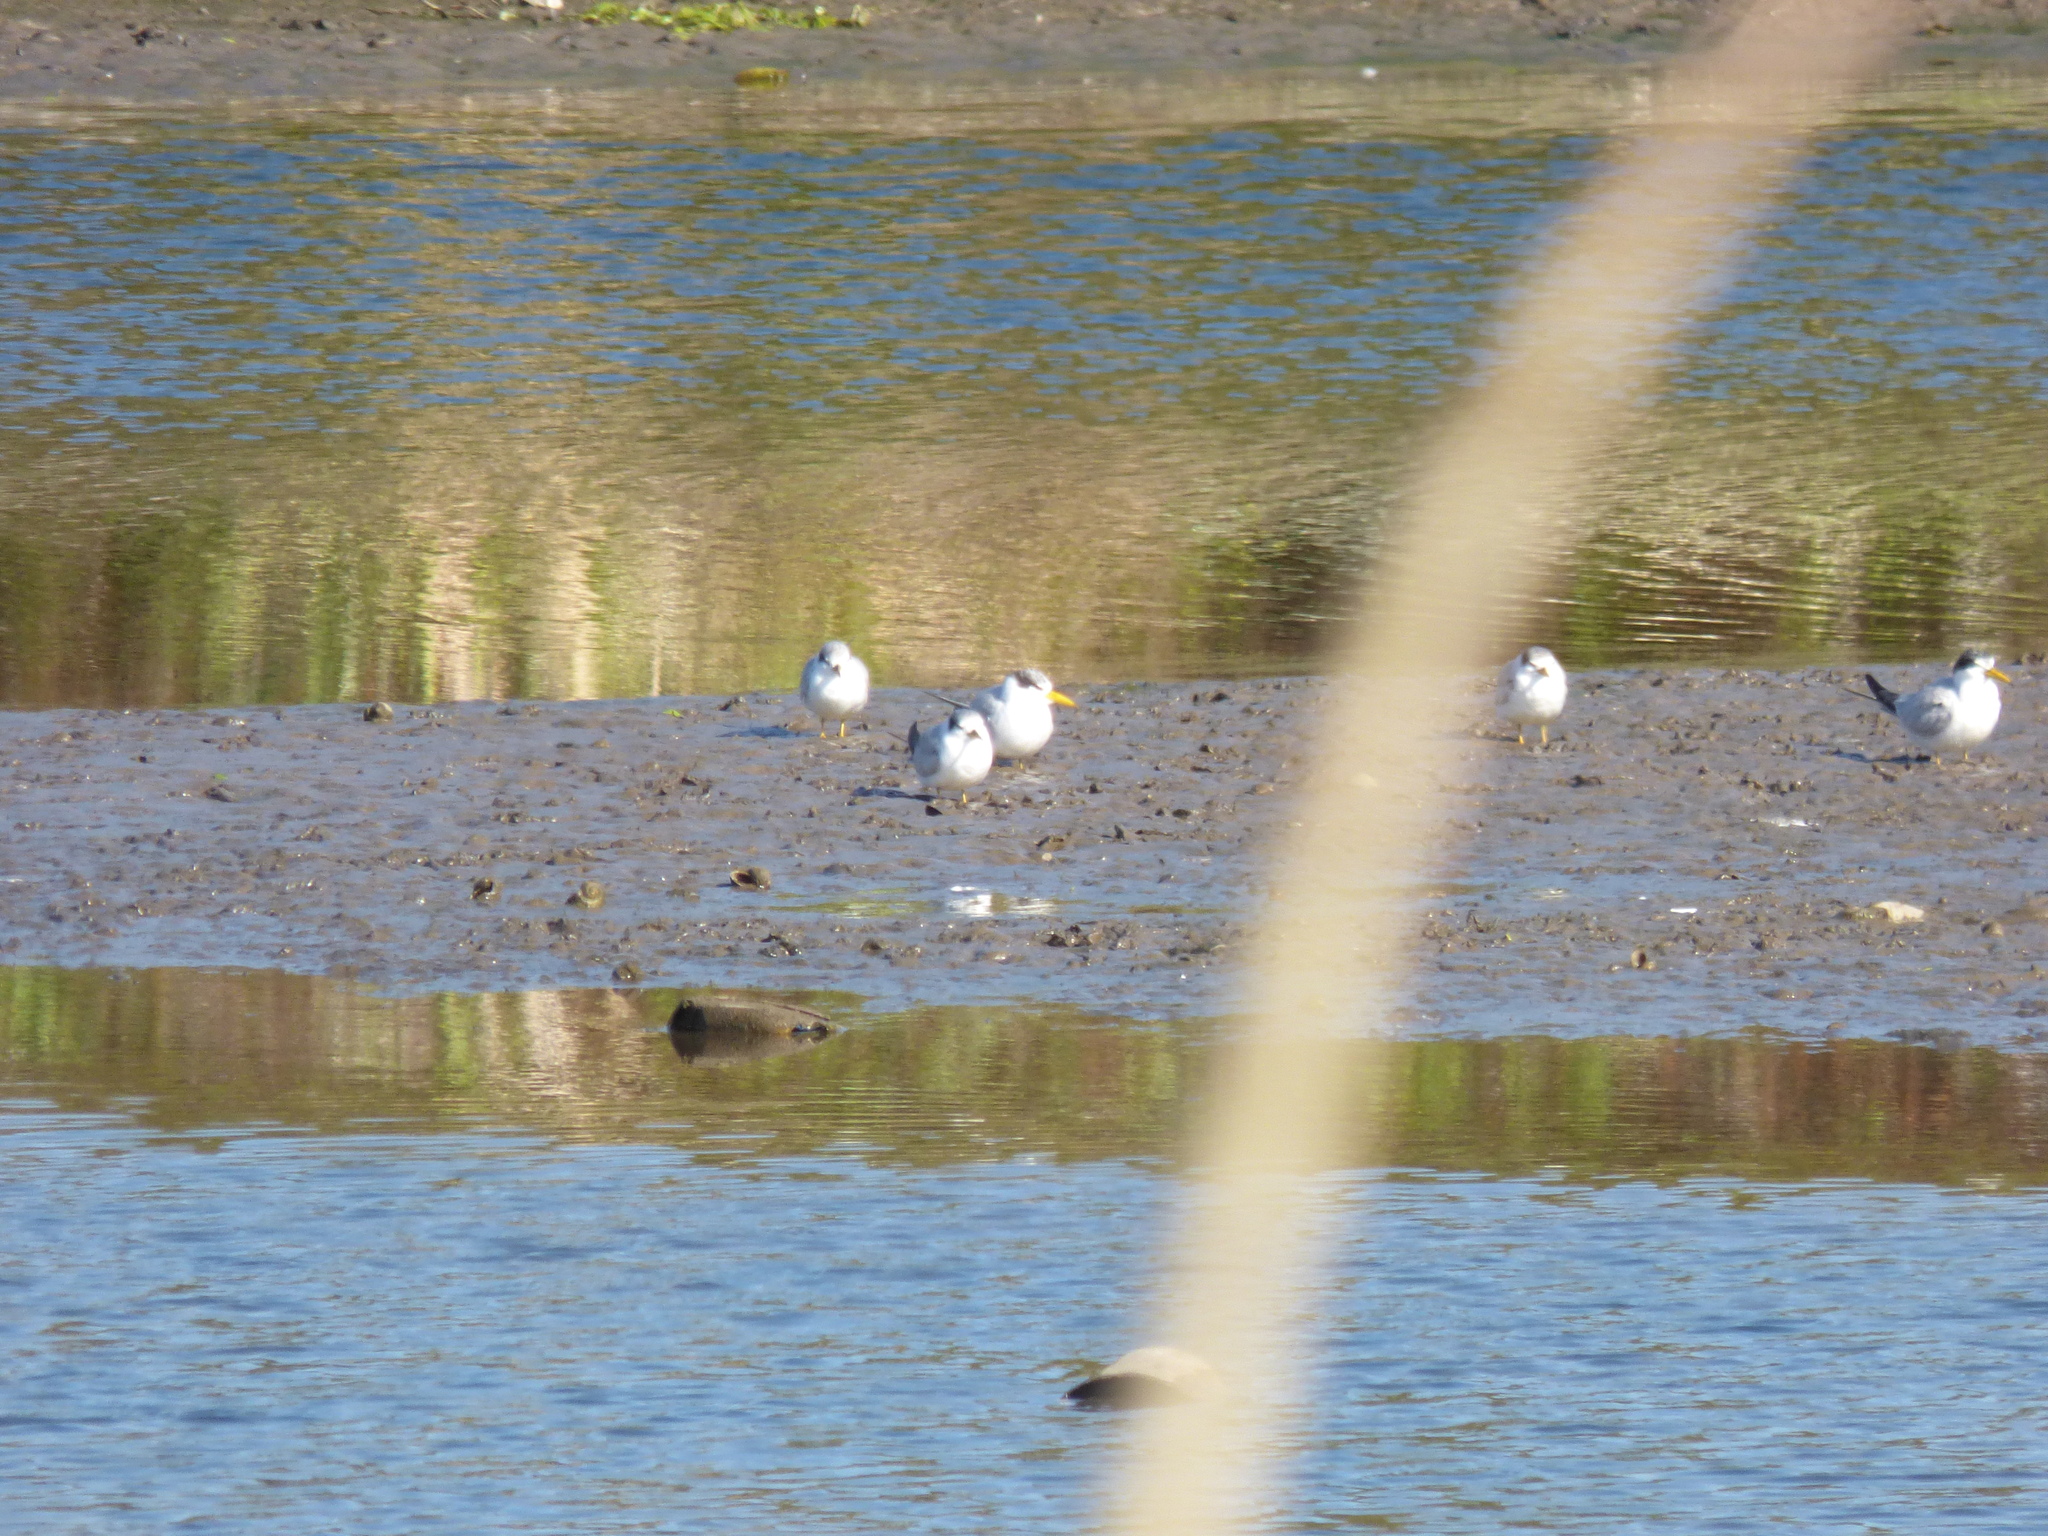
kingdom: Animalia
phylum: Chordata
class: Aves
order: Charadriiformes
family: Laridae
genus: Sternula
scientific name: Sternula superciliaris
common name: Yellow-billed tern
